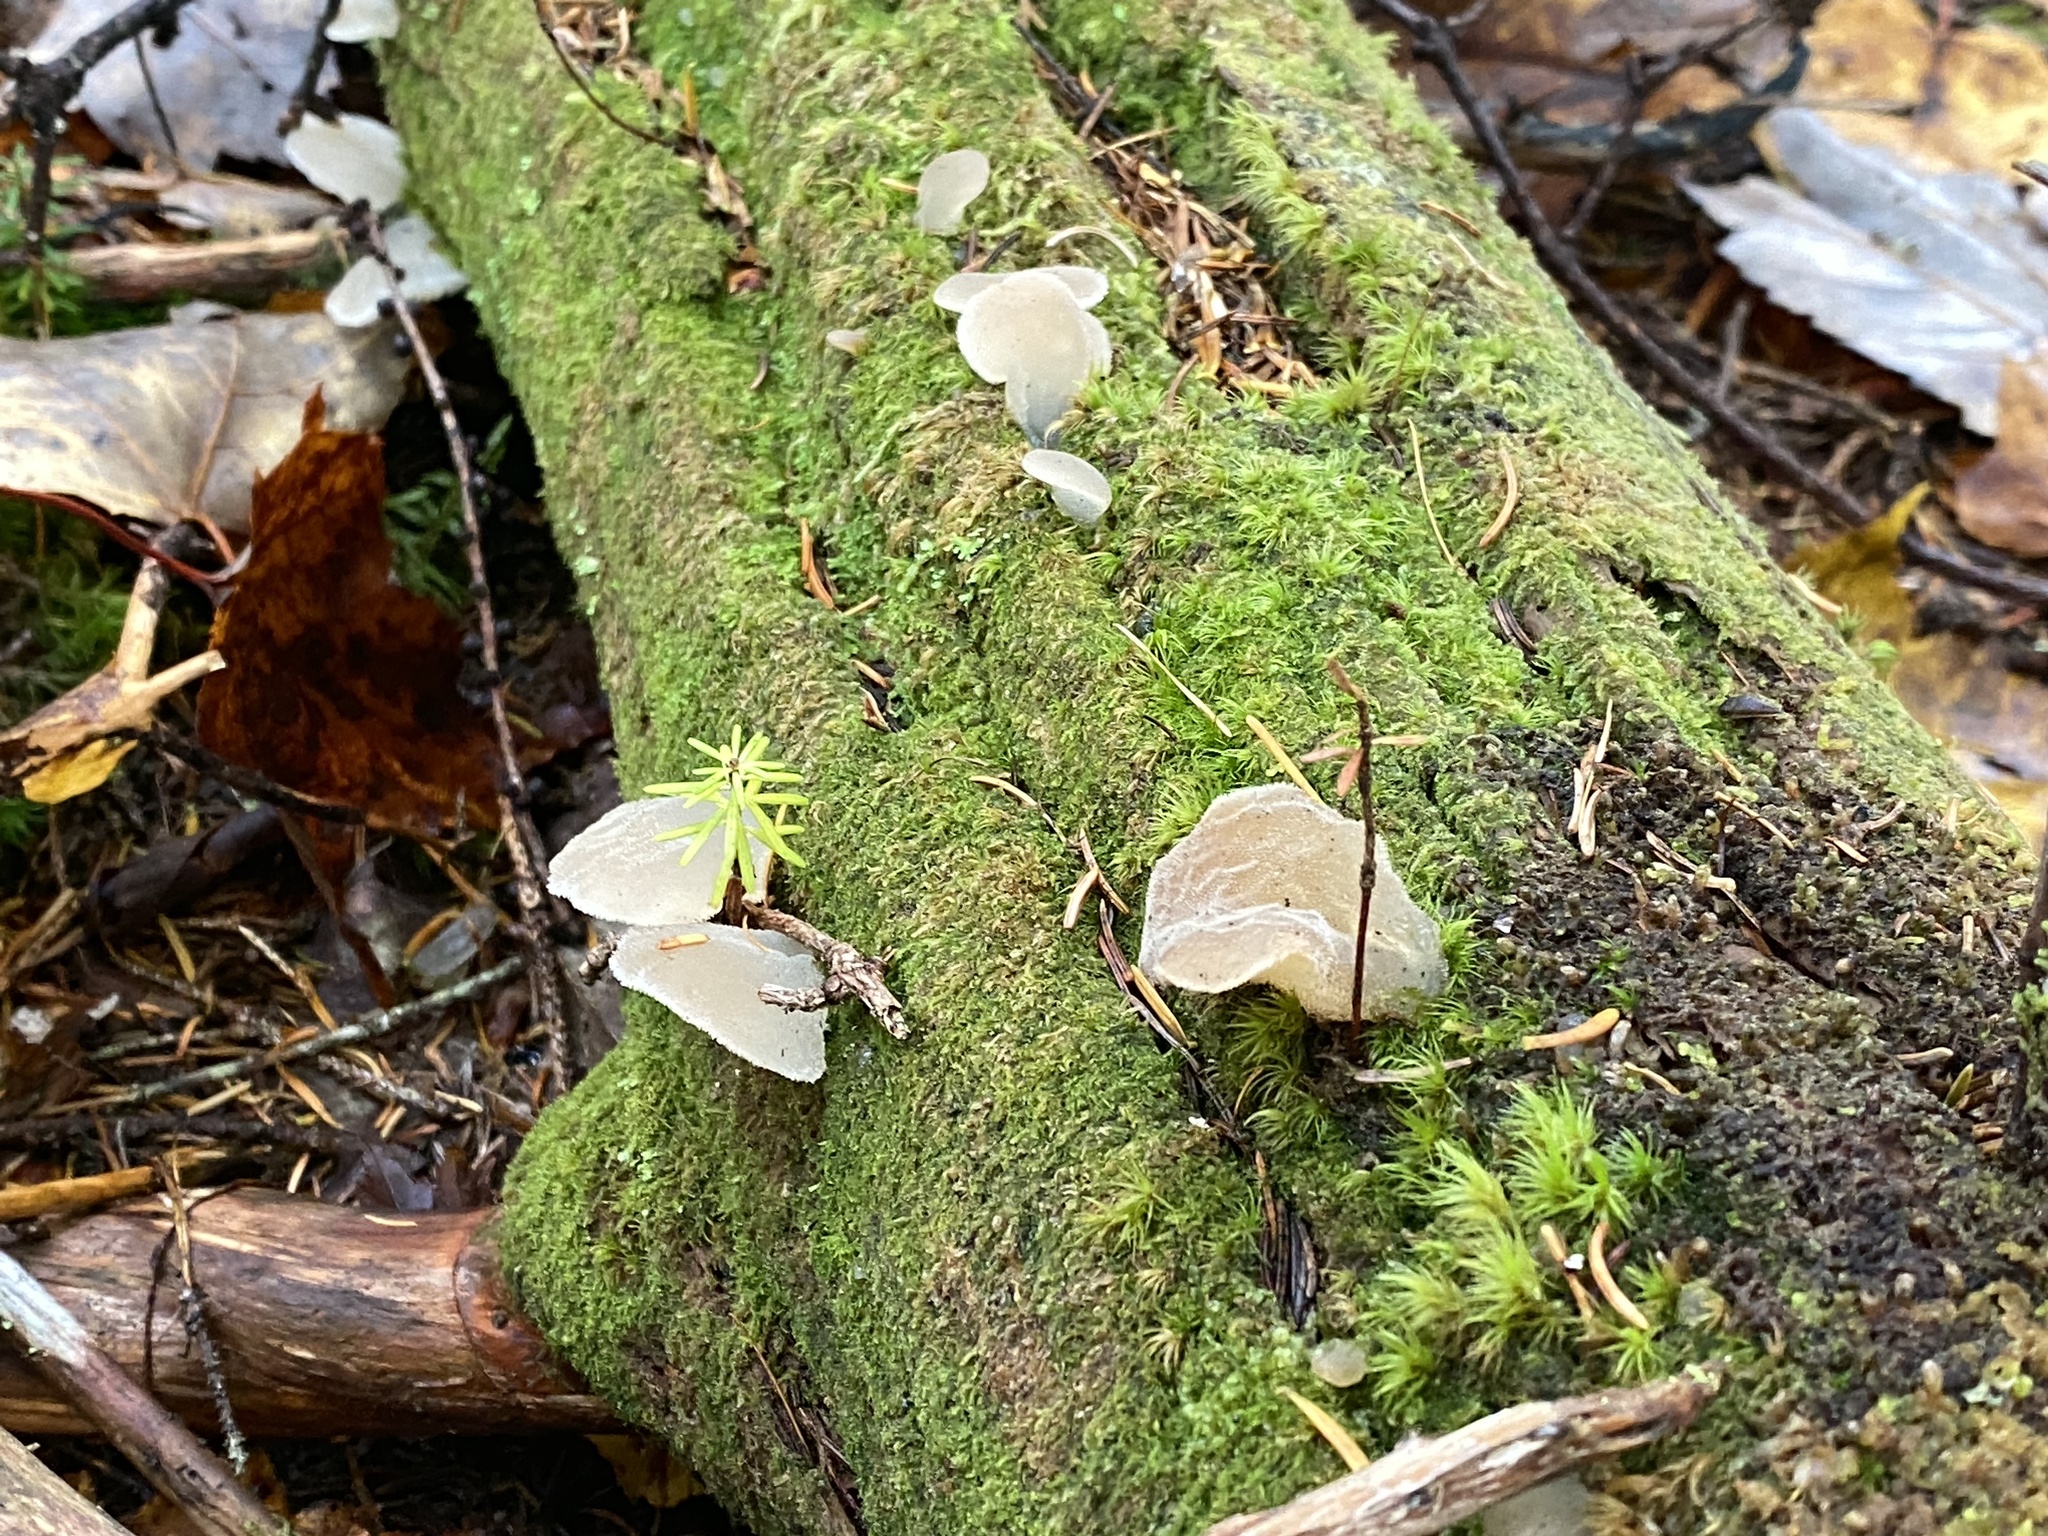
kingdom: Fungi
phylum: Basidiomycota
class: Agaricomycetes
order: Auriculariales
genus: Pseudohydnum
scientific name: Pseudohydnum gelatinosum
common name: Jelly tongue
